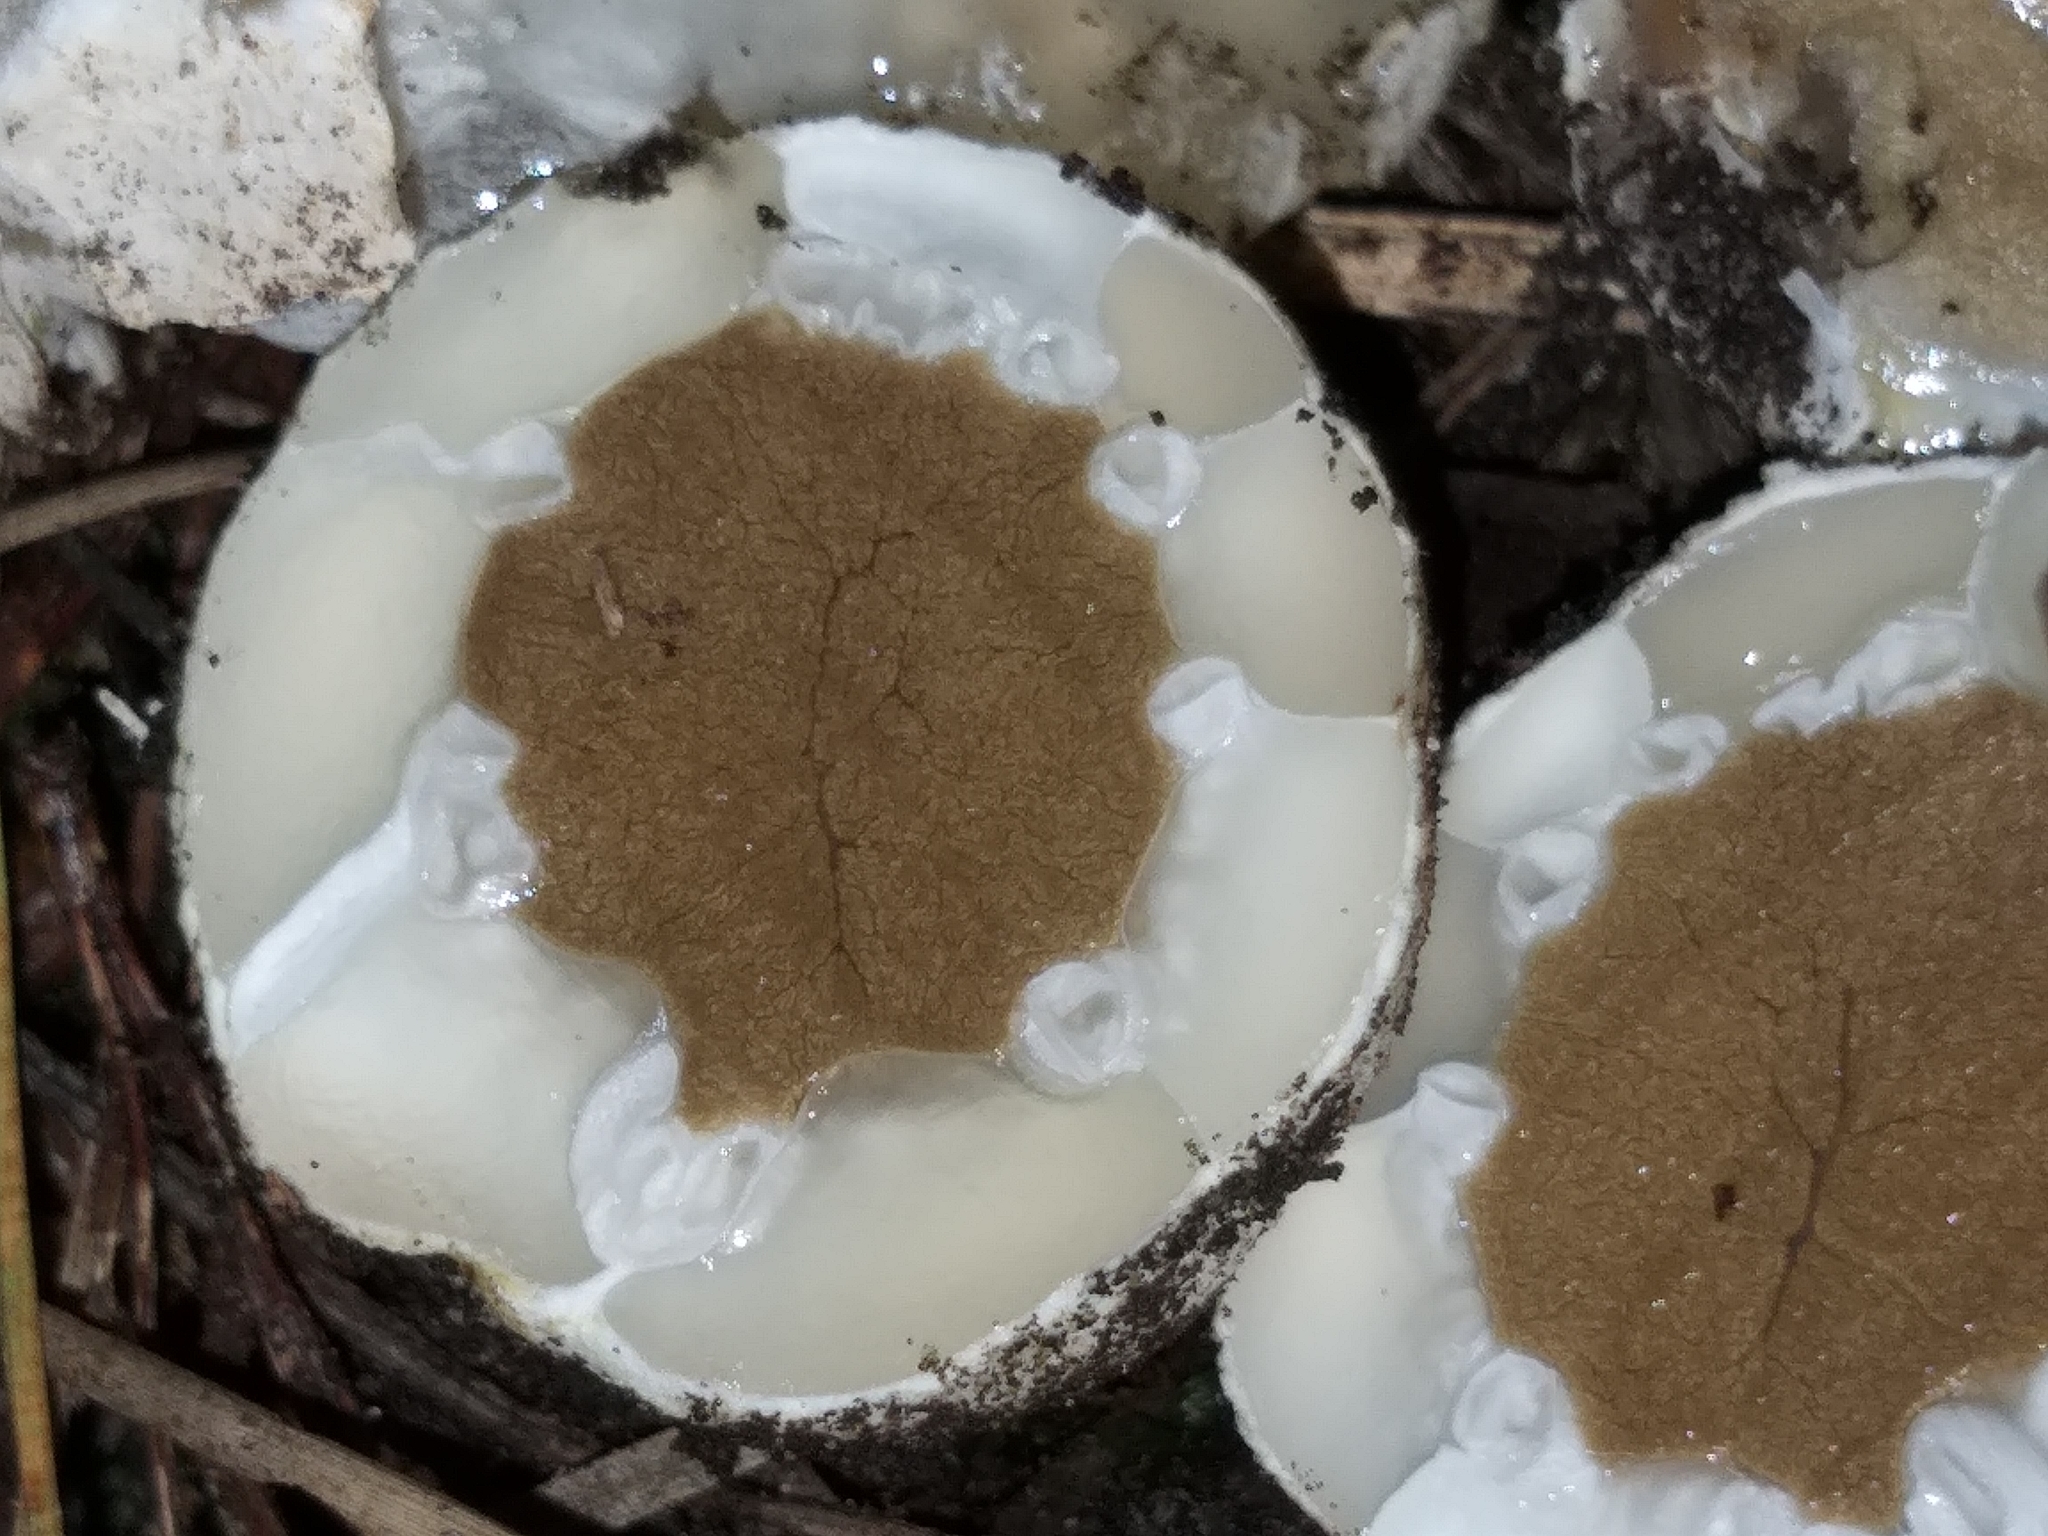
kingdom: Fungi
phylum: Basidiomycota
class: Agaricomycetes
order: Phallales
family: Phallaceae
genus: Ileodictyon
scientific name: Ileodictyon cibarium
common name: Basket fungus
